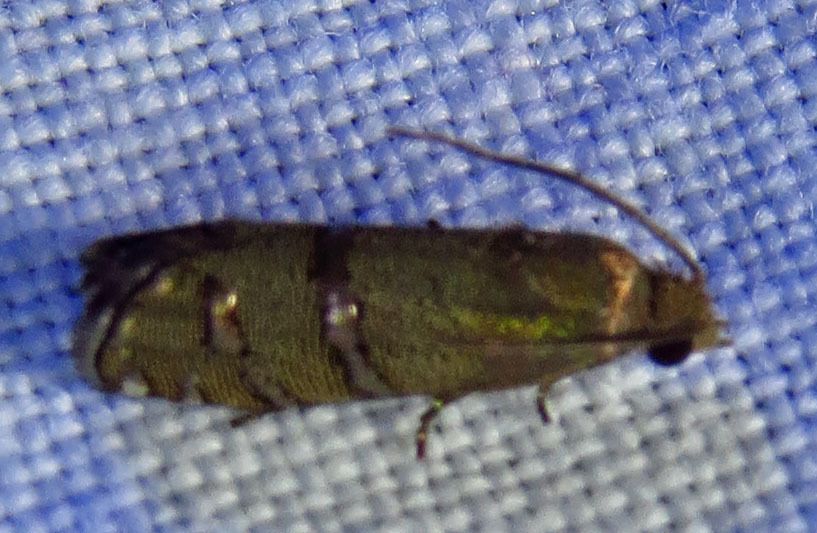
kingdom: Animalia
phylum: Arthropoda
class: Insecta
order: Lepidoptera
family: Tortricidae
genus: Cydia
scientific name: Cydia toreuta
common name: Eastern pine seedworm moth
